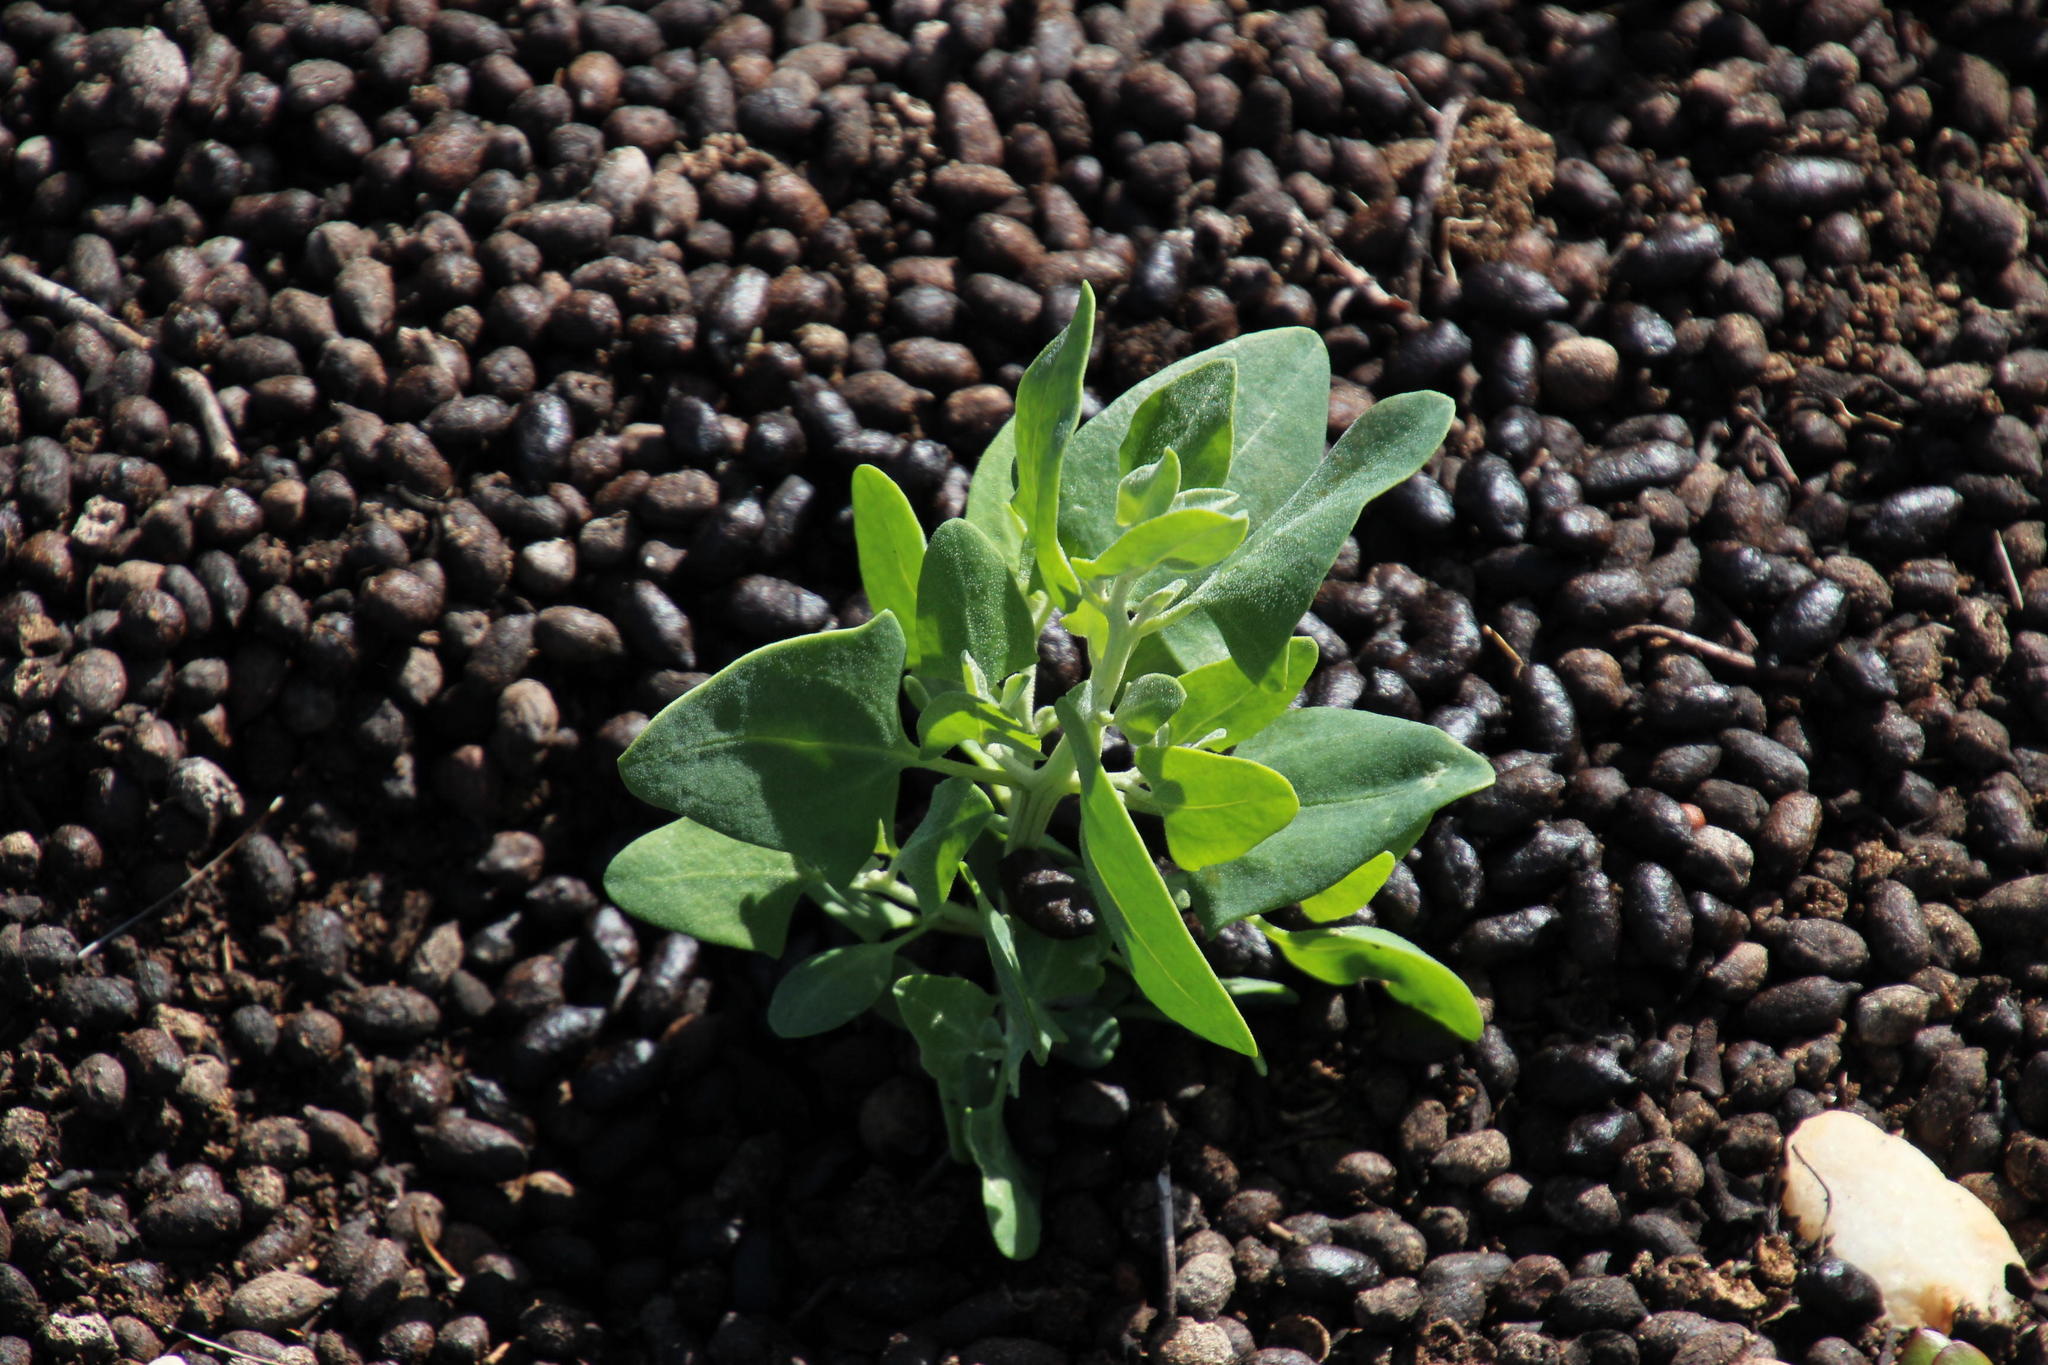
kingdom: Animalia
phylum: Chordata
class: Mammalia
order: Hyracoidea
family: Procaviidae
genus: Procavia
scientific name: Procavia capensis
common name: Rock hyrax
